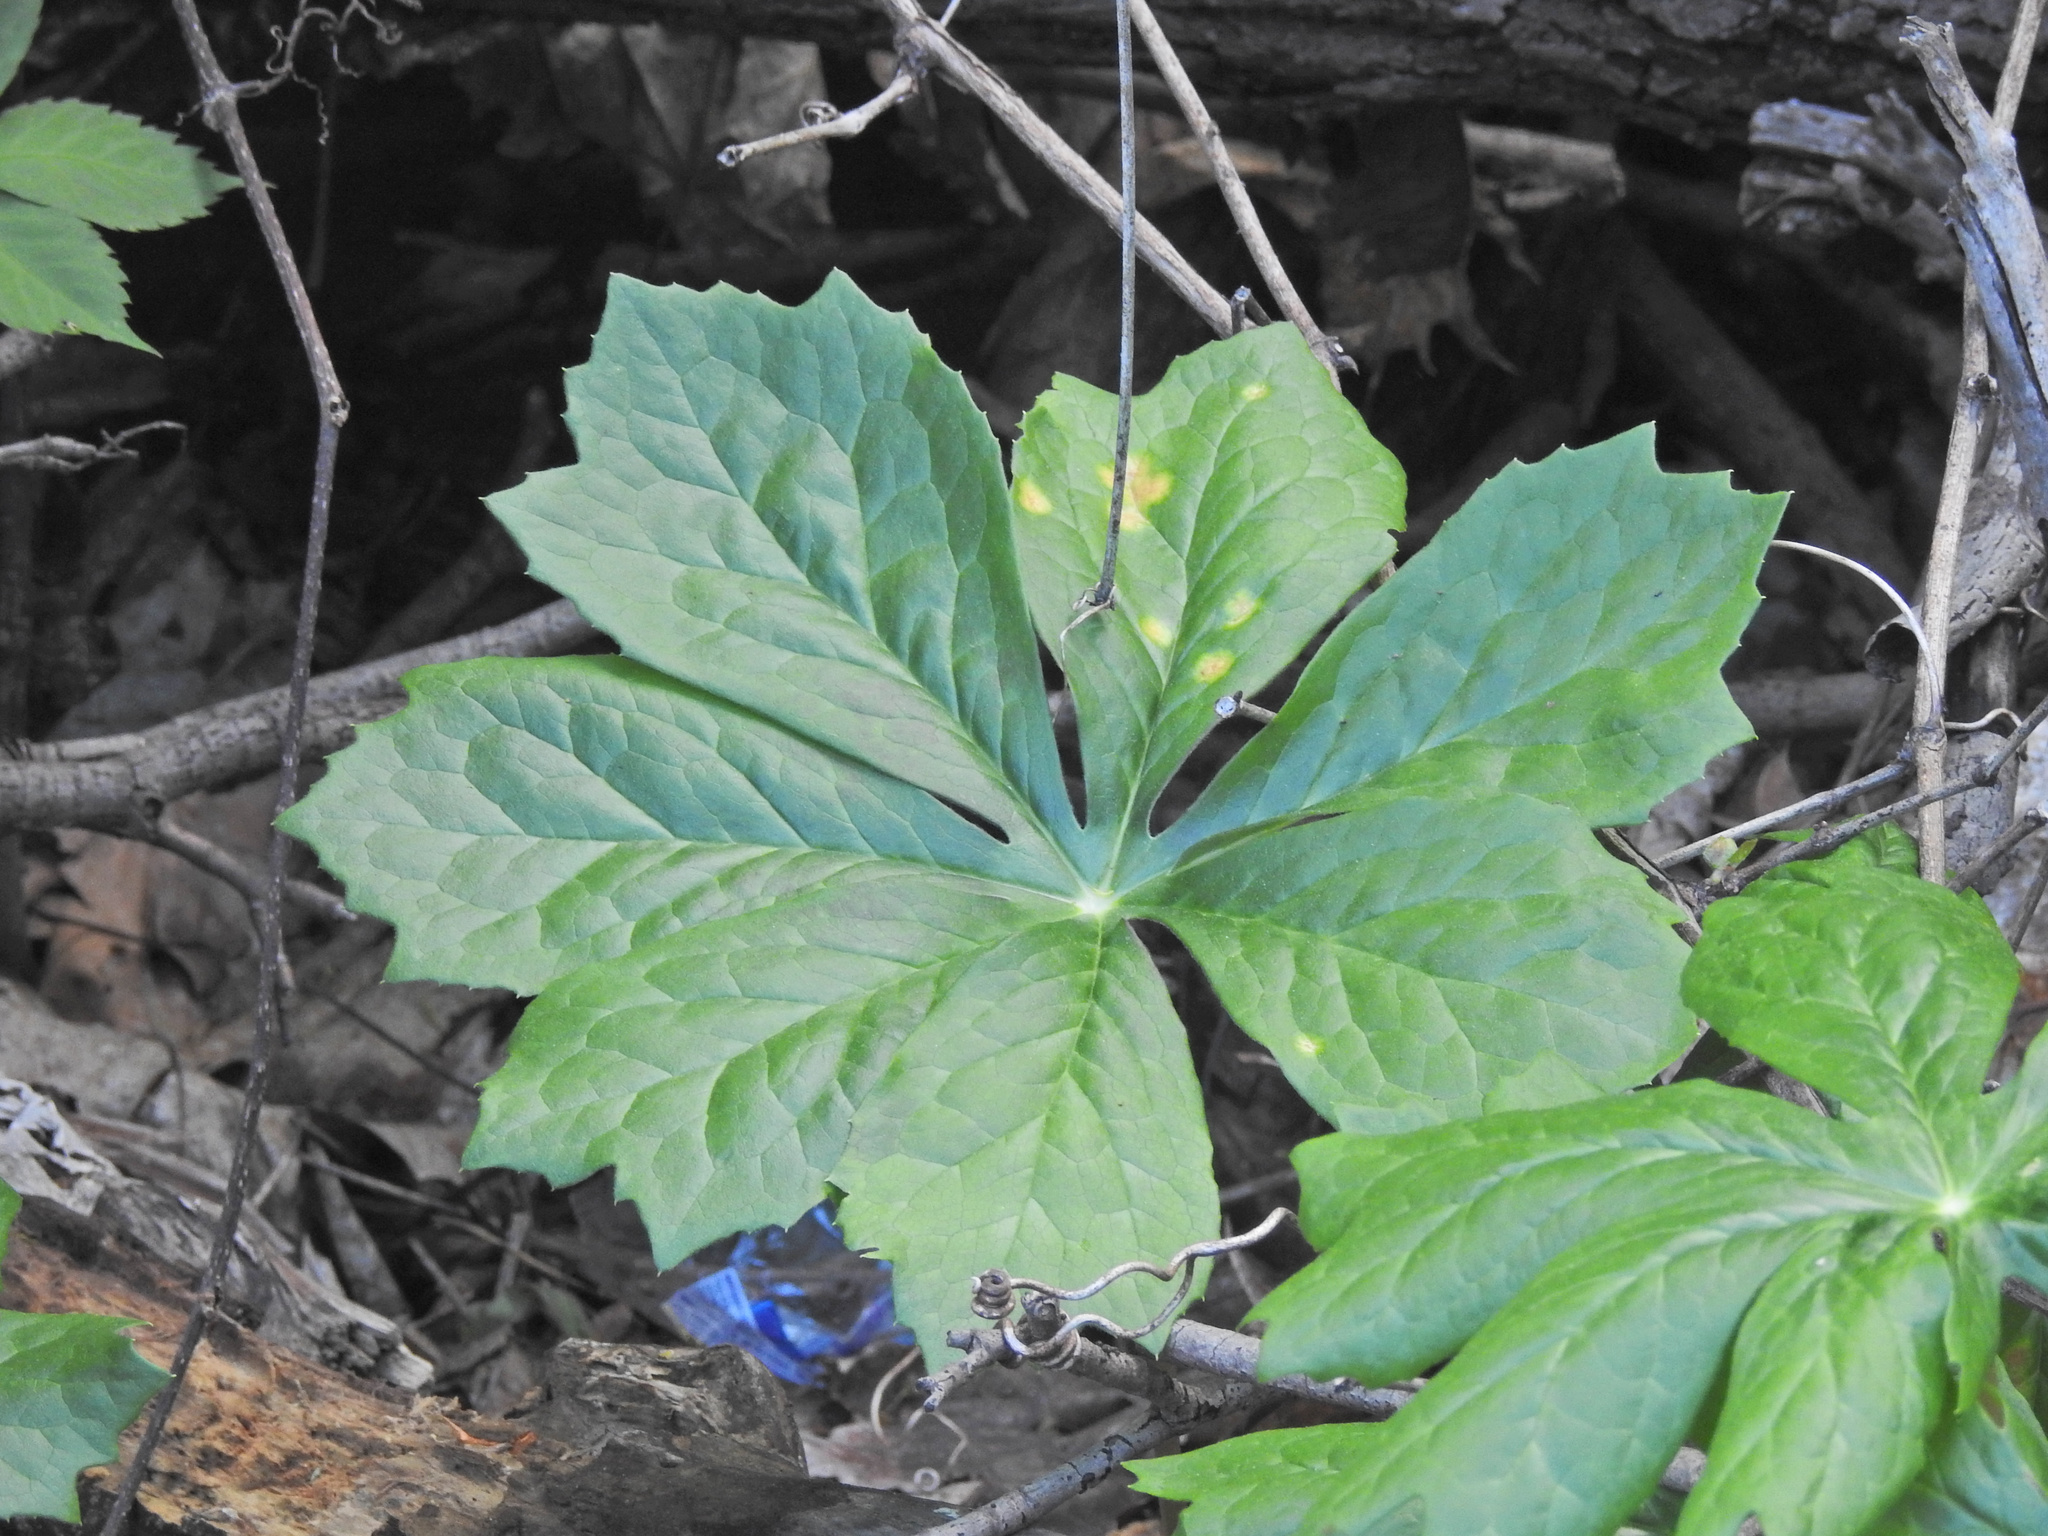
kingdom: Plantae
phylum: Tracheophyta
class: Magnoliopsida
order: Ranunculales
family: Berberidaceae
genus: Podophyllum
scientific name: Podophyllum peltatum
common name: Wild mandrake
